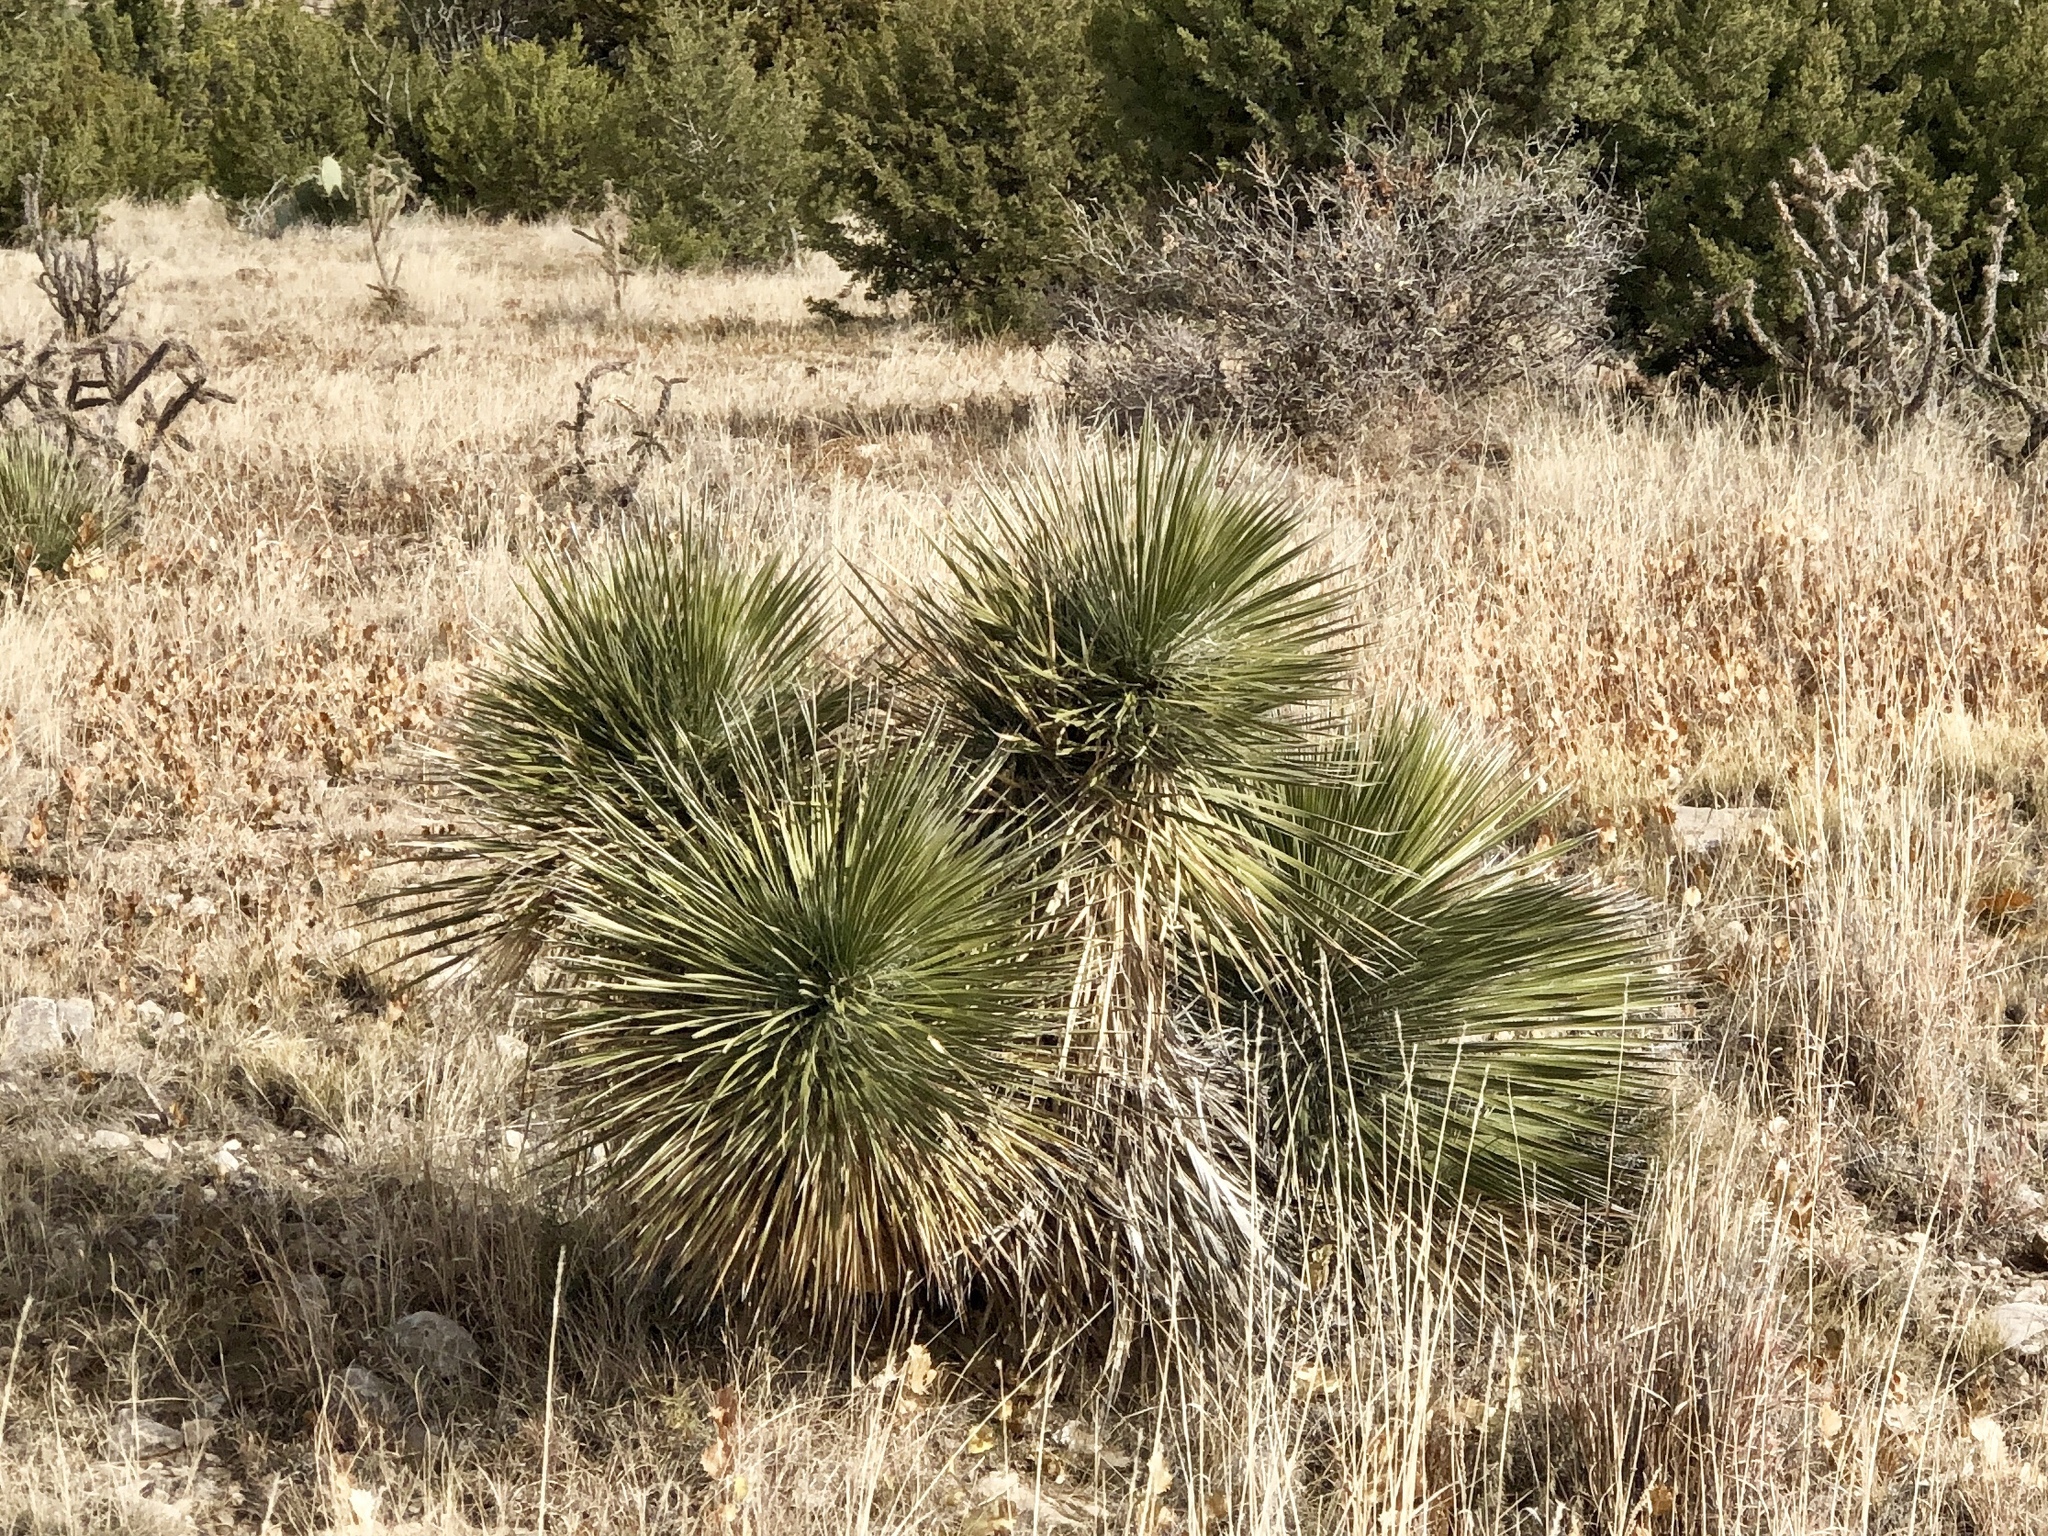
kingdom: Plantae
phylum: Tracheophyta
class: Liliopsida
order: Asparagales
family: Asparagaceae
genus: Yucca
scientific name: Yucca elata
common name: Palmella
